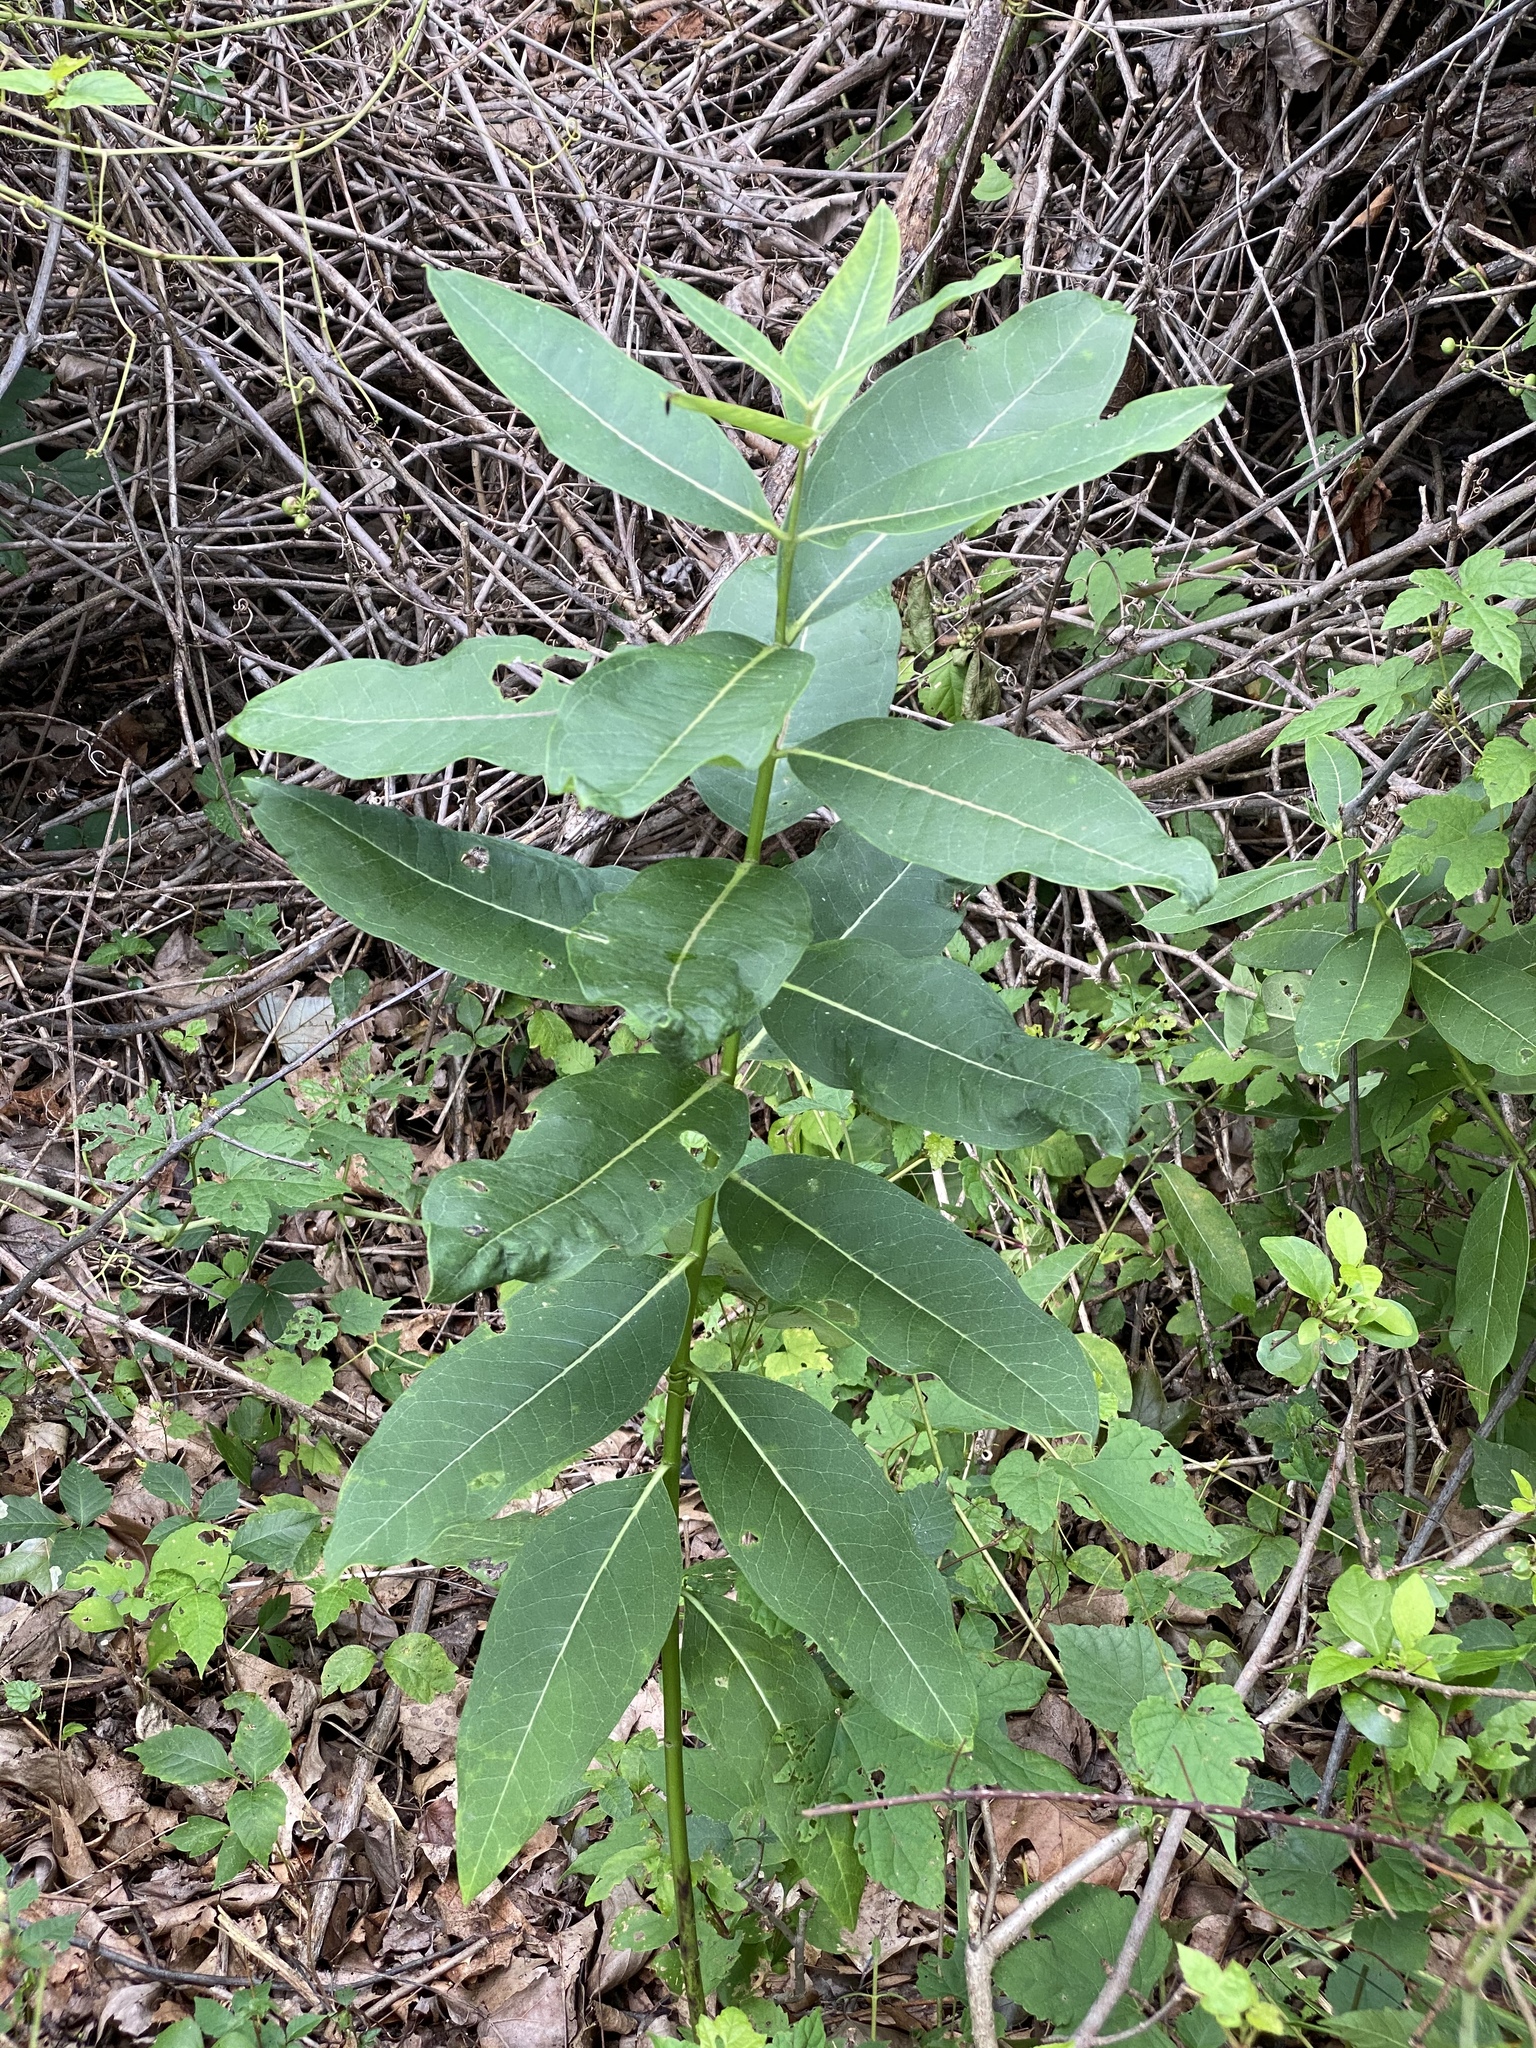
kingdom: Plantae
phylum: Tracheophyta
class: Magnoliopsida
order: Gentianales
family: Apocynaceae
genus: Asclepias
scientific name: Asclepias syriaca
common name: Common milkweed
